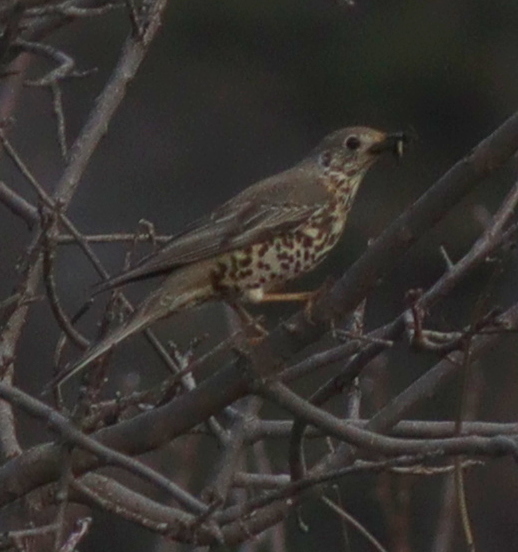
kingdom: Animalia
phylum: Chordata
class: Aves
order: Passeriformes
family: Turdidae
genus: Turdus
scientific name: Turdus viscivorus
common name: Mistle thrush
